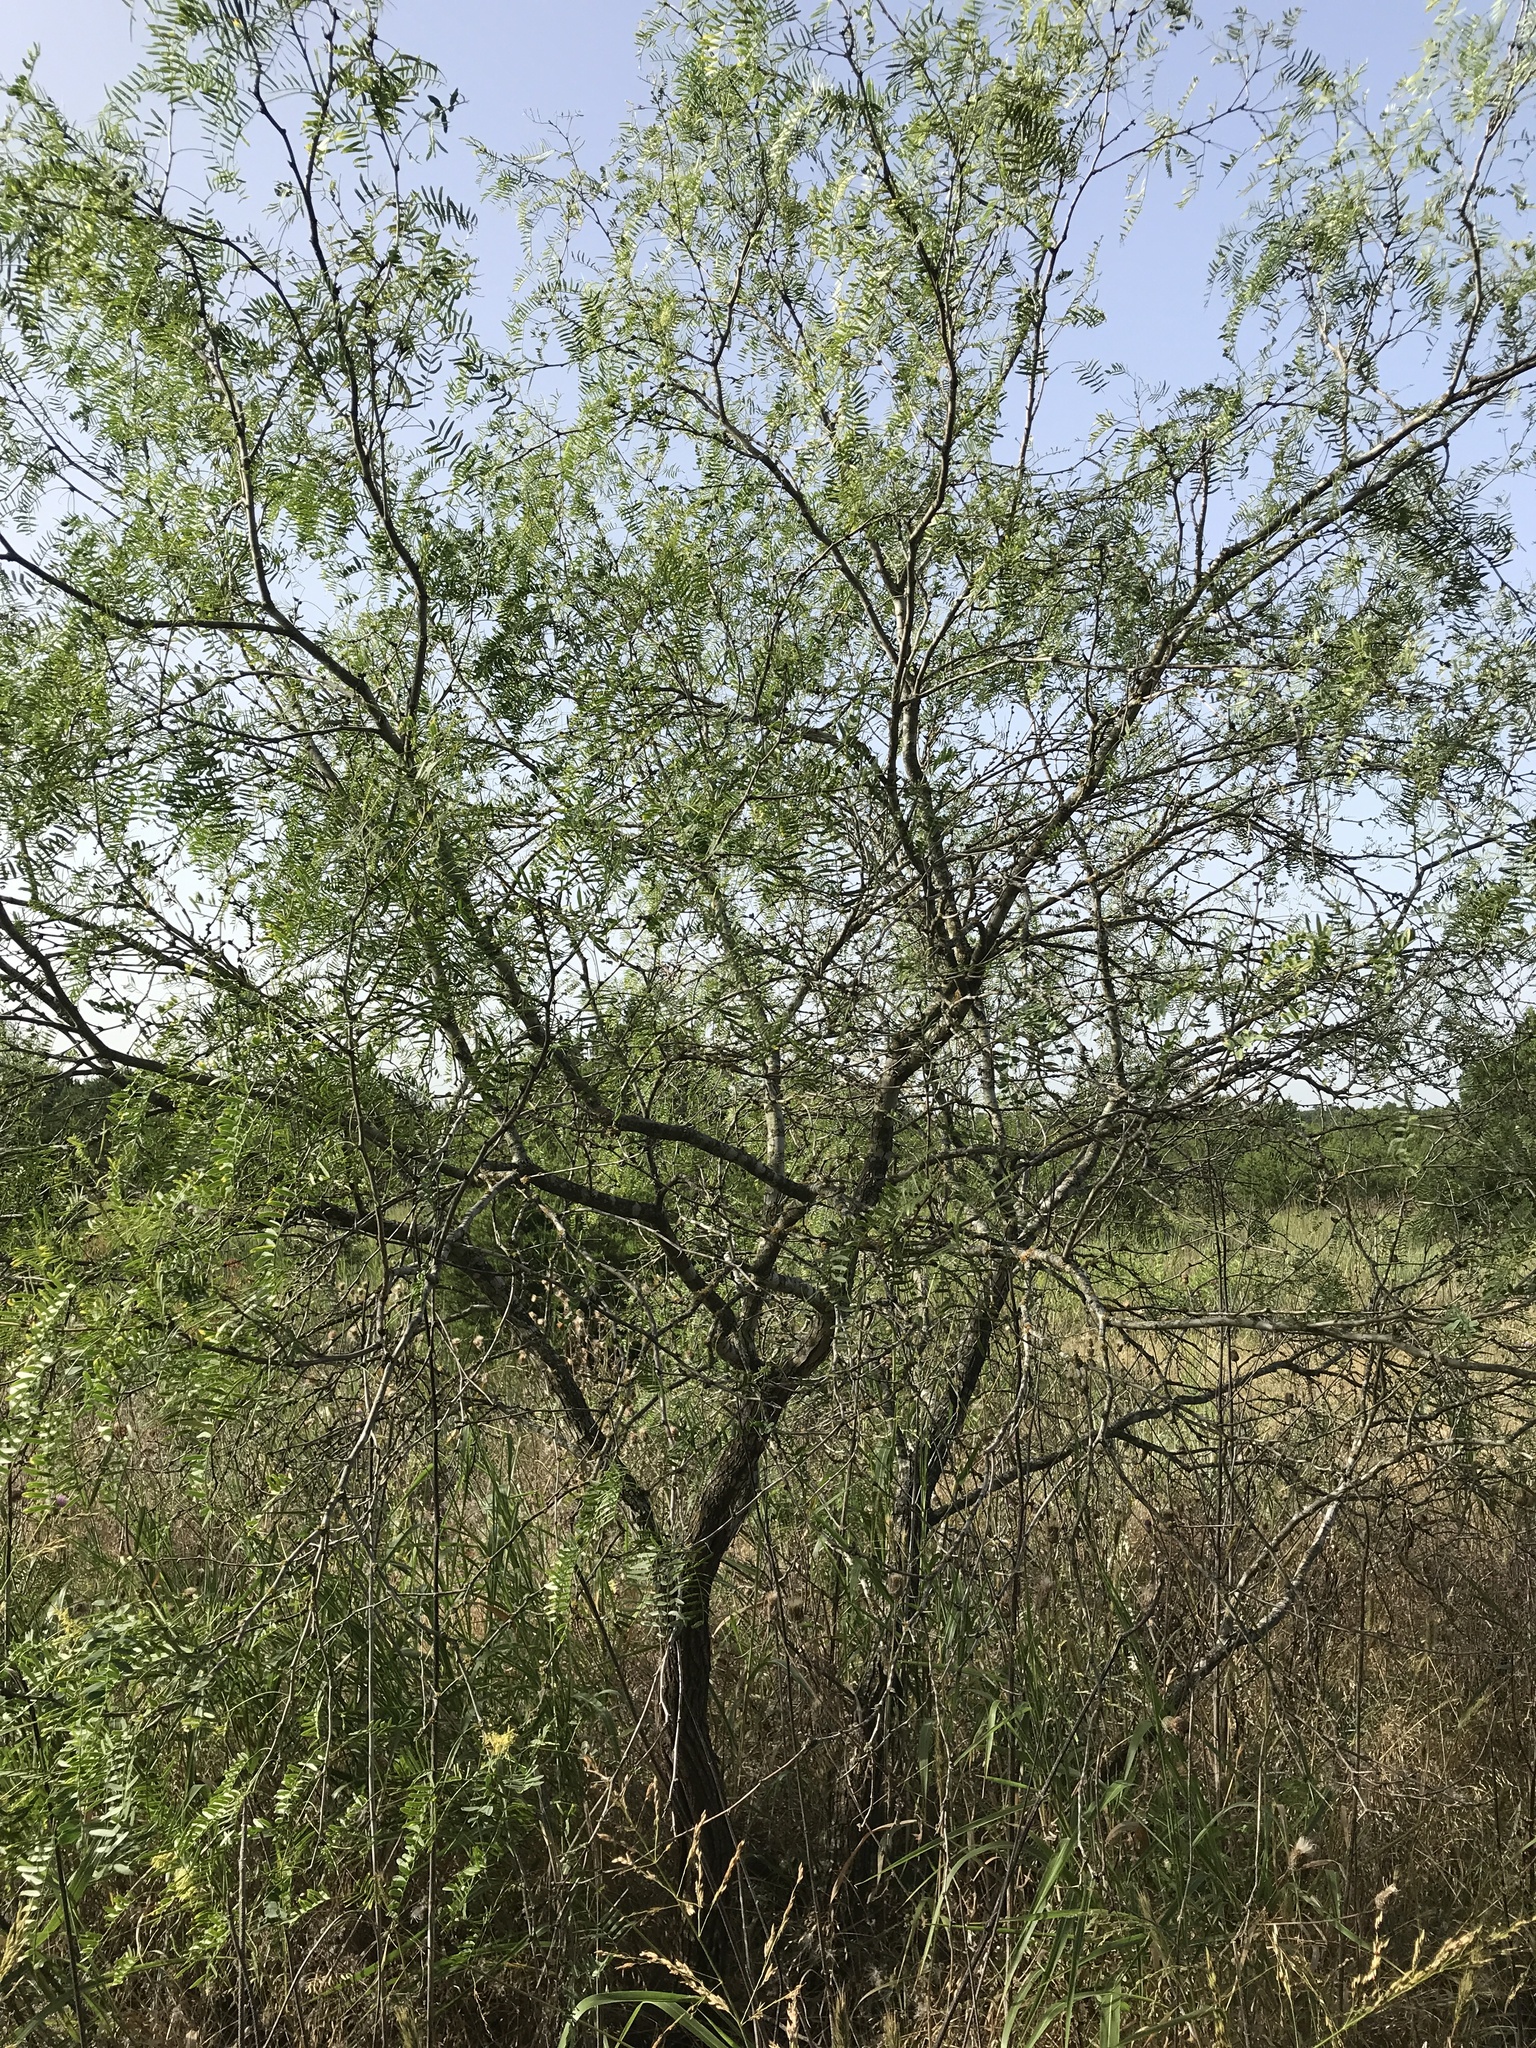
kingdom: Plantae
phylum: Tracheophyta
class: Magnoliopsida
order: Fabales
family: Fabaceae
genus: Prosopis
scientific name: Prosopis glandulosa
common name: Honey mesquite
